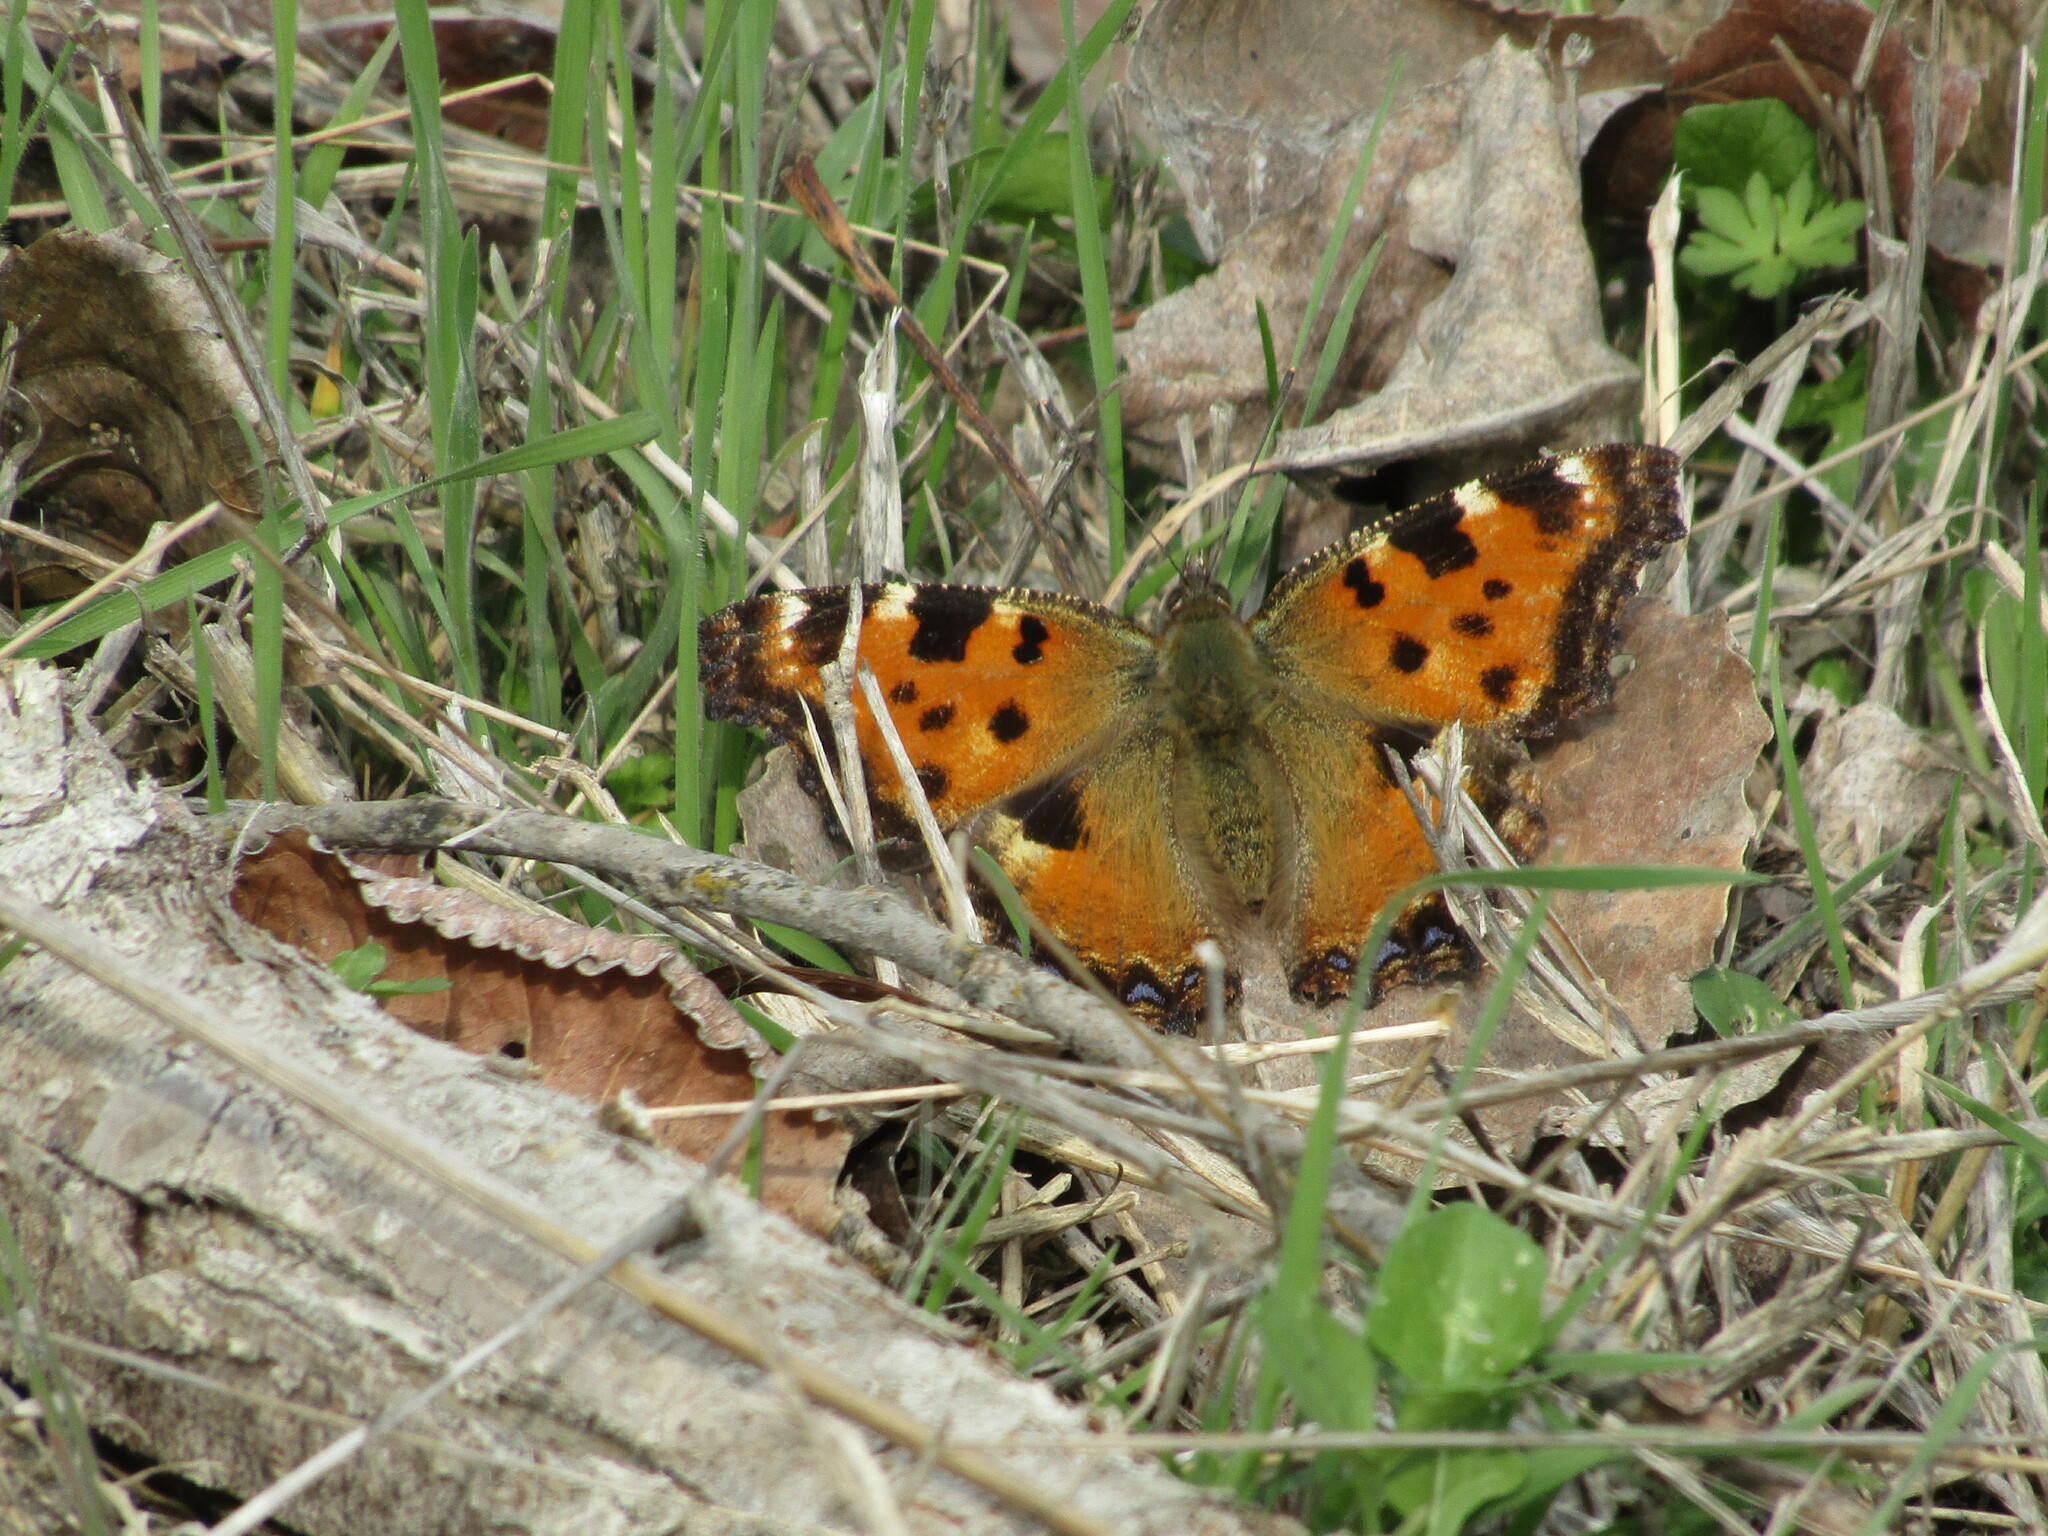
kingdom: Animalia
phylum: Arthropoda
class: Insecta
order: Lepidoptera
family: Nymphalidae
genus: Nymphalis
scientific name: Nymphalis polychloros
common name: Large tortoiseshell
